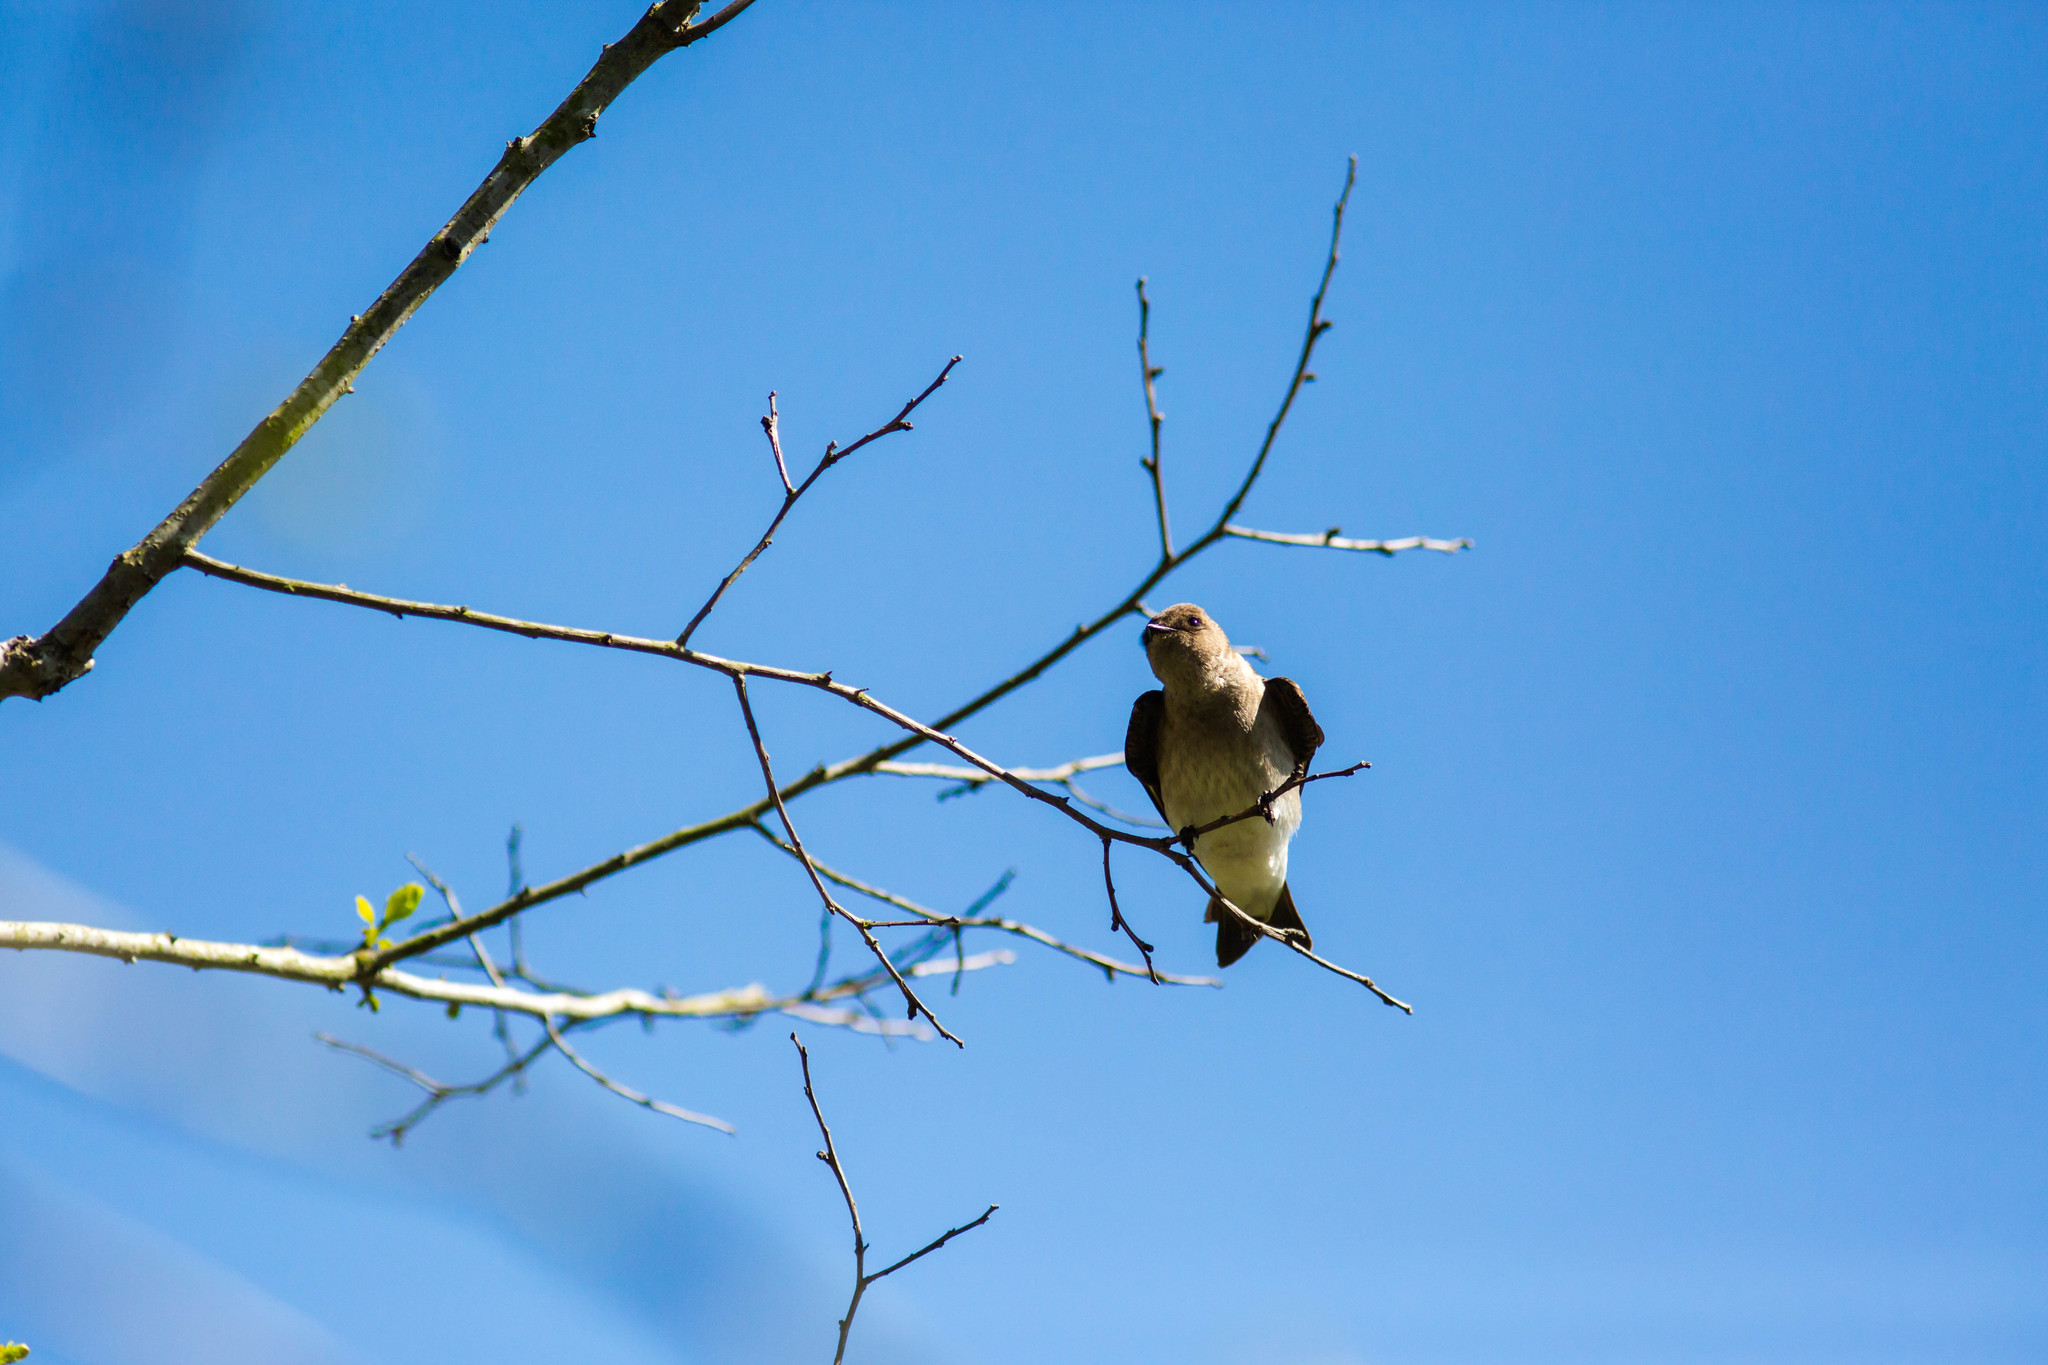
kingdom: Animalia
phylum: Chordata
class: Aves
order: Passeriformes
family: Hirundinidae
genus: Stelgidopteryx
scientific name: Stelgidopteryx serripennis
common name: Northern rough-winged swallow
